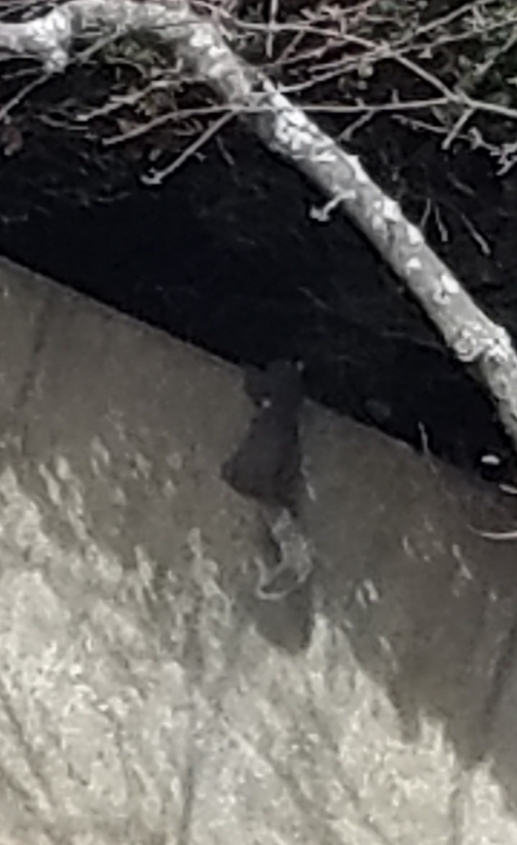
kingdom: Animalia
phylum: Chordata
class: Mammalia
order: Rodentia
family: Sciuridae
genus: Sciurus
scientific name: Sciurus carolinensis
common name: Eastern gray squirrel
